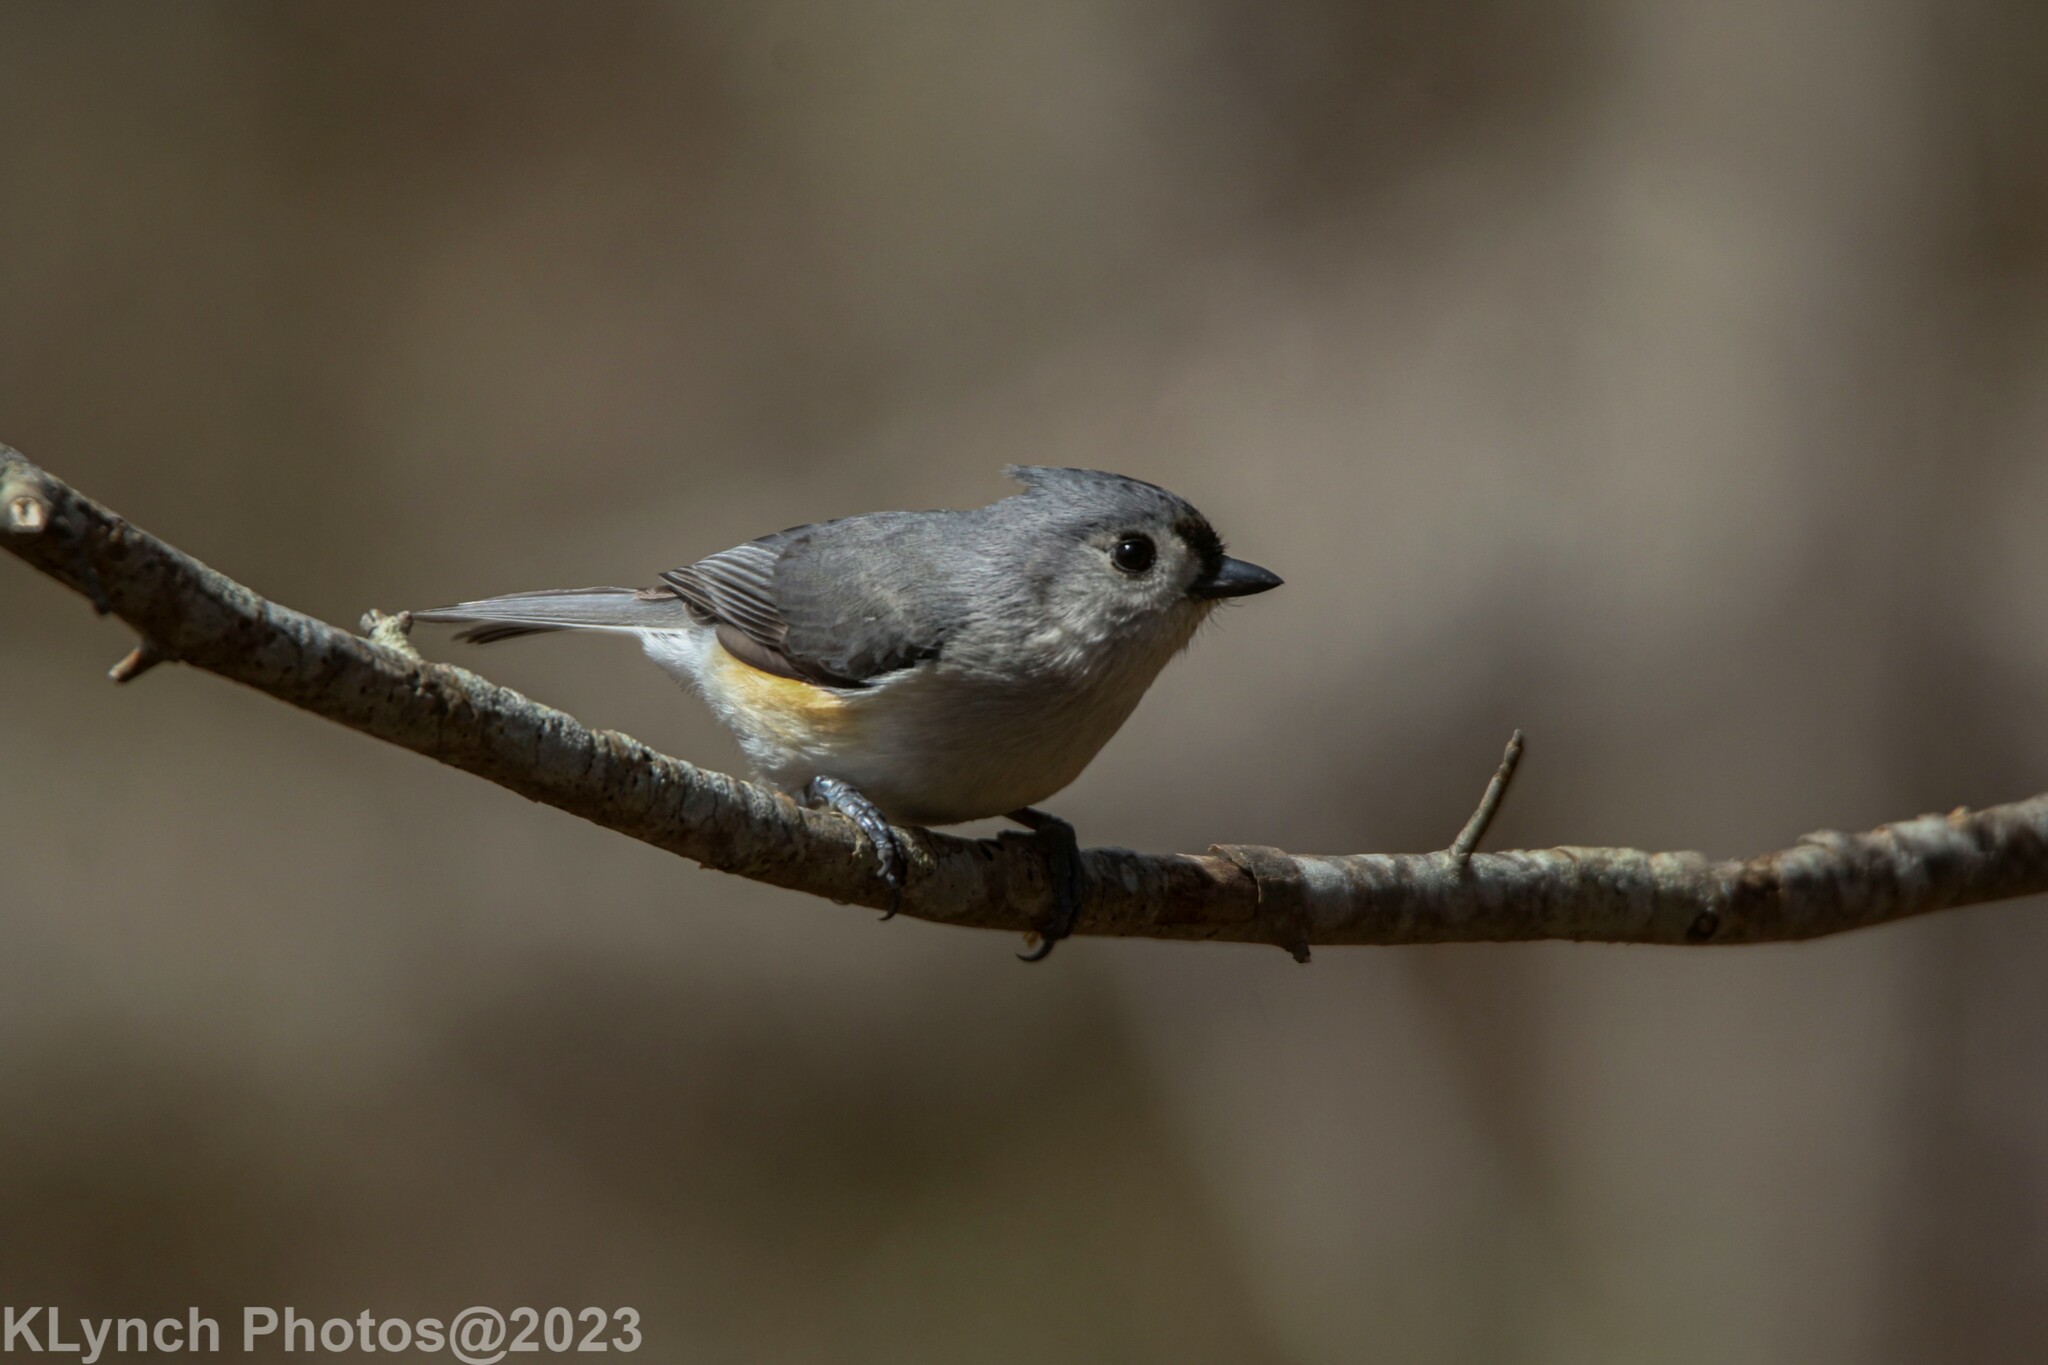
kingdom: Animalia
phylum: Chordata
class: Aves
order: Passeriformes
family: Paridae
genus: Baeolophus
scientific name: Baeolophus bicolor
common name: Tufted titmouse
